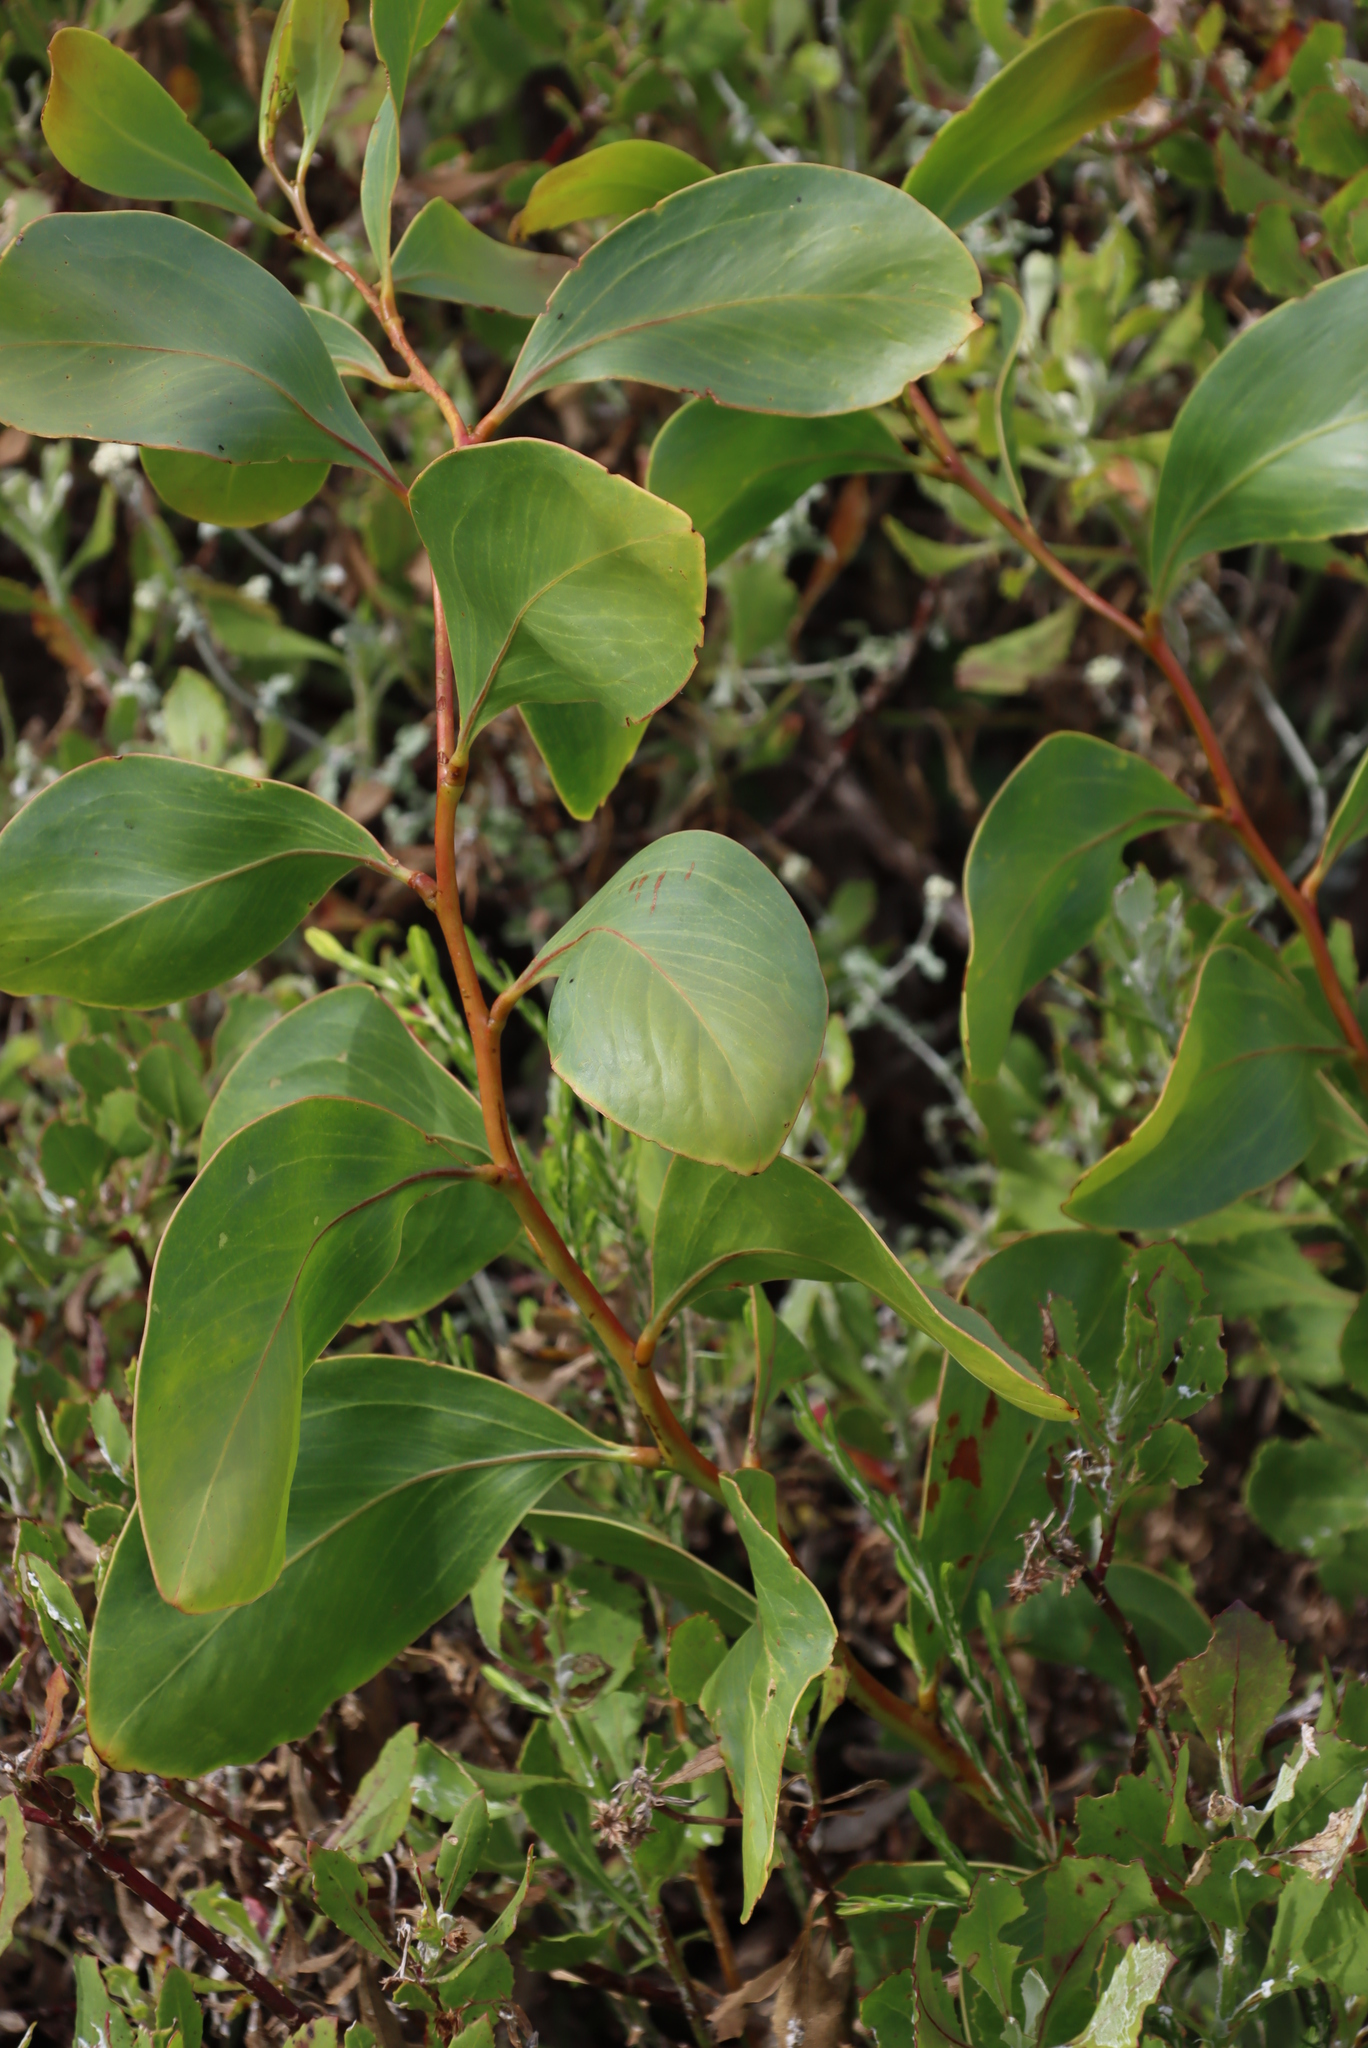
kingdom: Plantae
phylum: Tracheophyta
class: Magnoliopsida
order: Fabales
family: Fabaceae
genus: Acacia
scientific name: Acacia pycnantha
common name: Golden wattle
